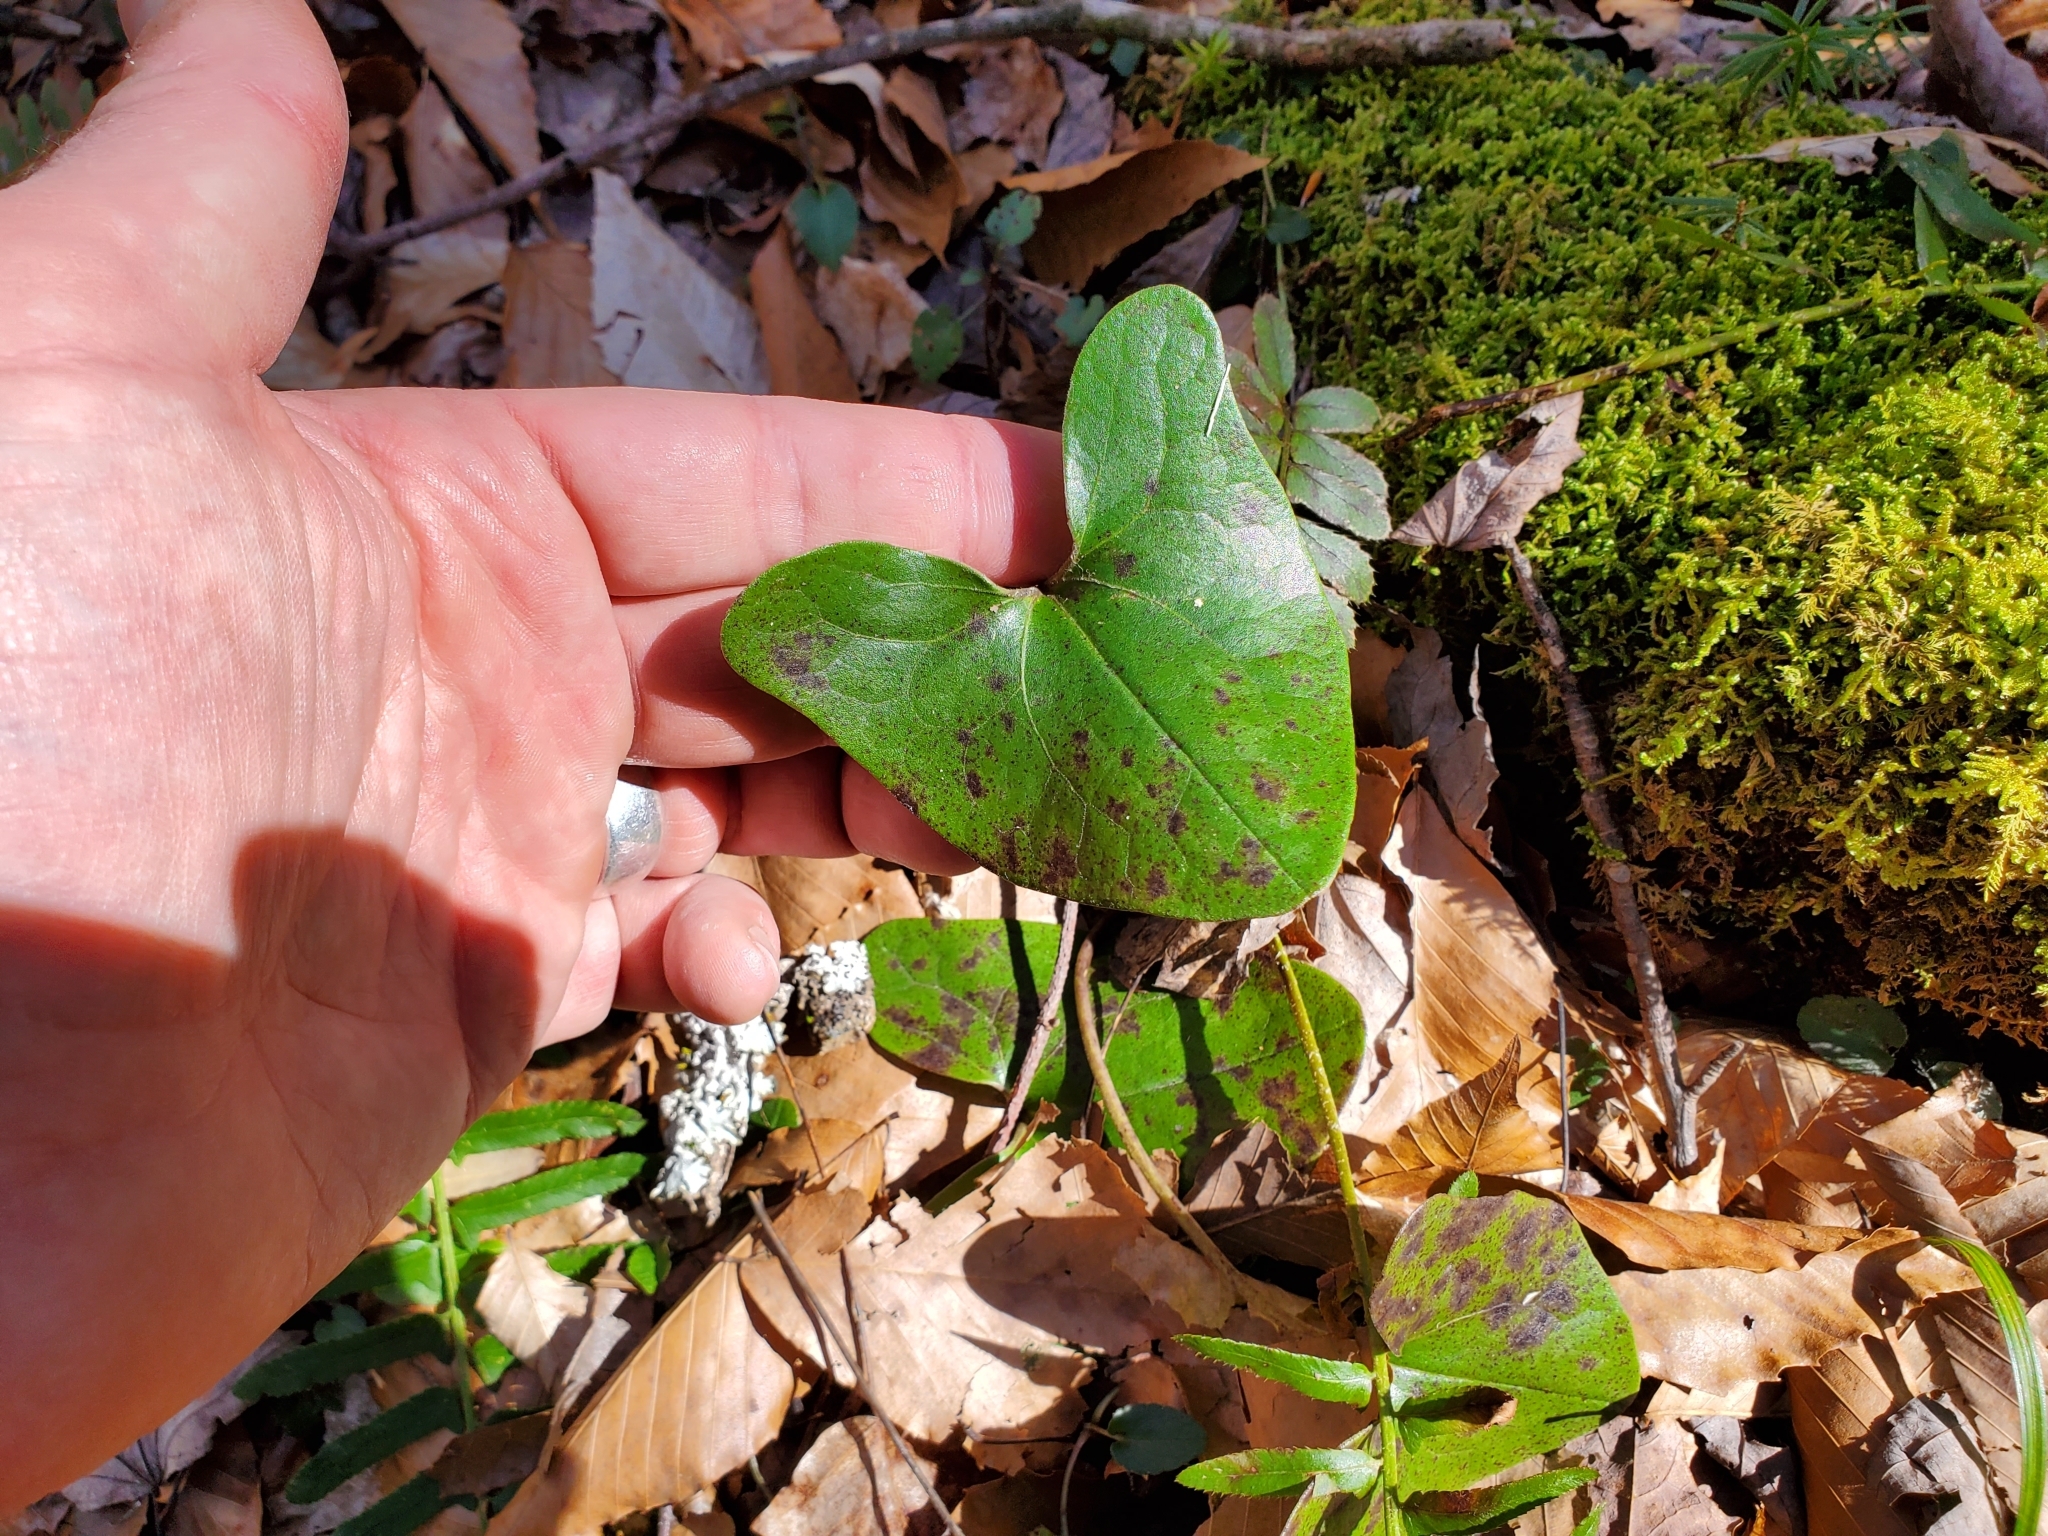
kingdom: Plantae
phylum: Tracheophyta
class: Magnoliopsida
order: Piperales
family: Aristolochiaceae
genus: Hexastylis
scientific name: Hexastylis arifolia
